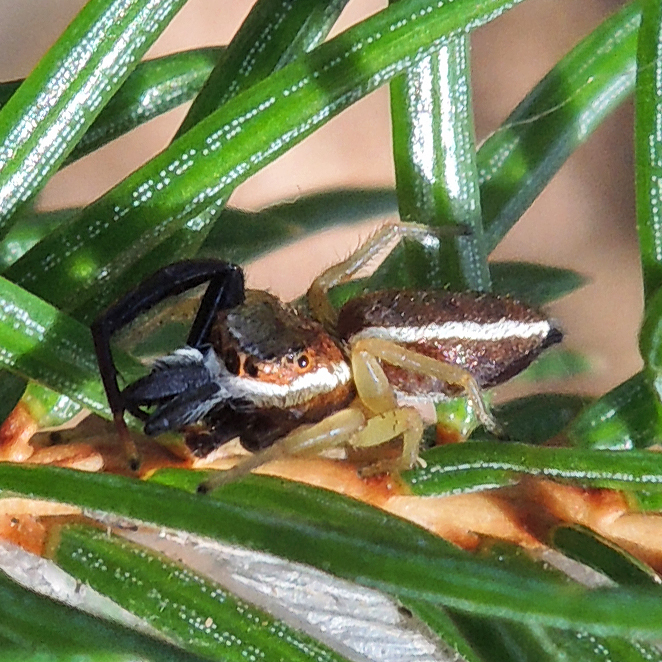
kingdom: Animalia
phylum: Arthropoda
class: Arachnida
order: Araneae
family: Salticidae
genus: Hentzia
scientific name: Hentzia palmarum
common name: Common hentz jumping spider
